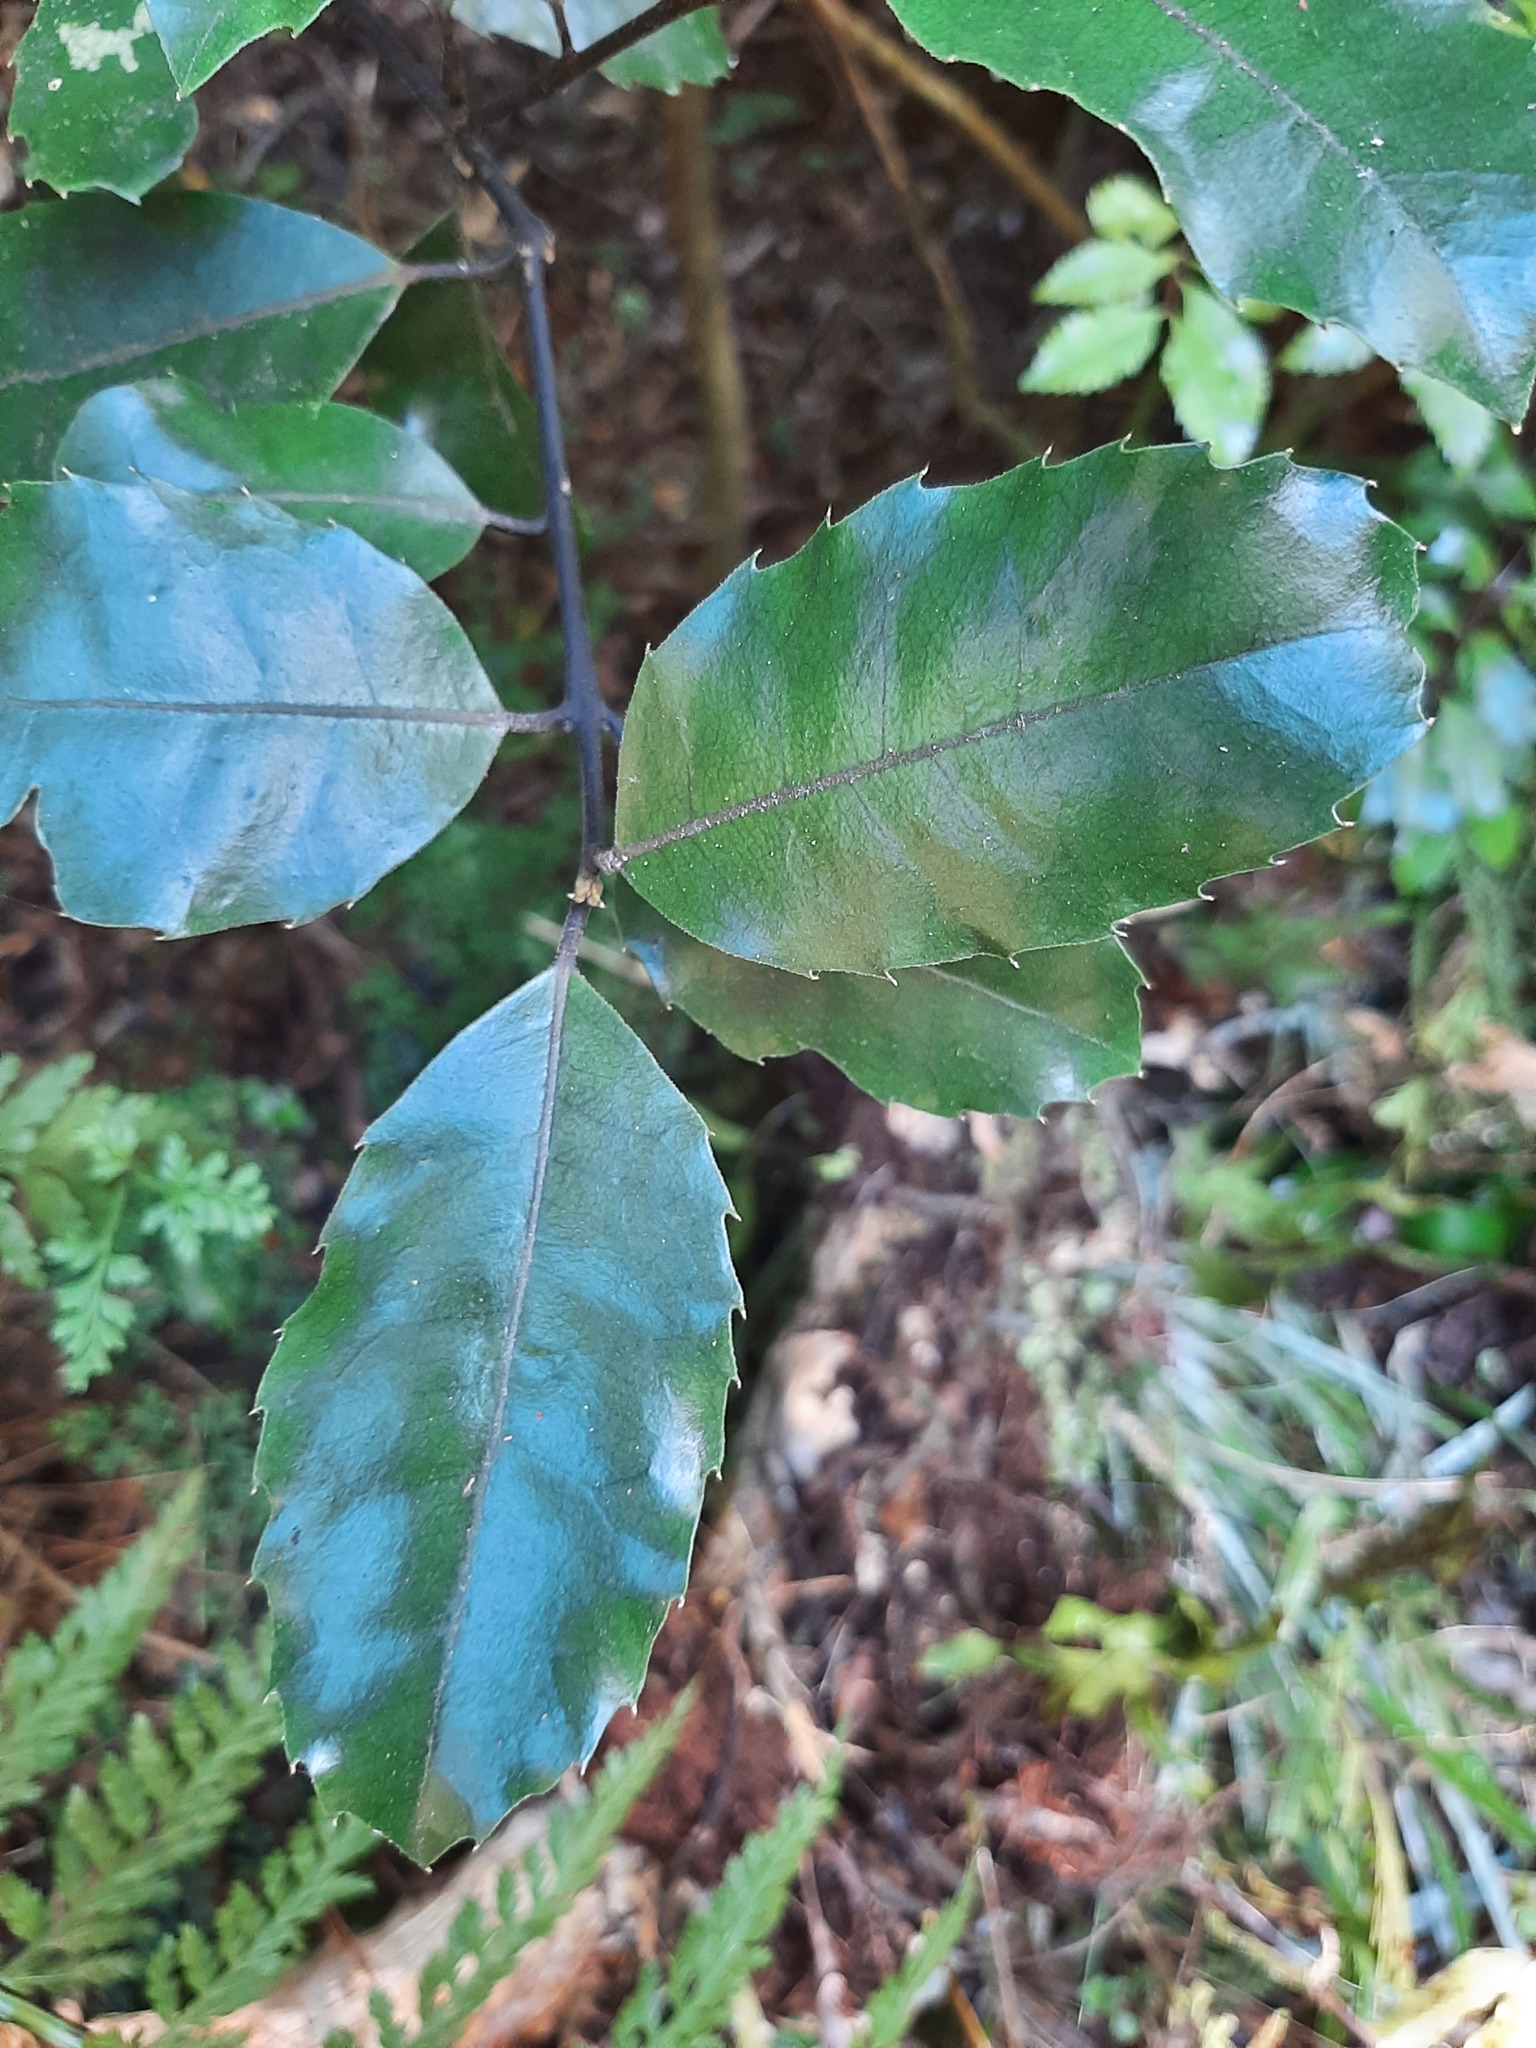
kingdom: Plantae
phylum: Tracheophyta
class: Magnoliopsida
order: Laurales
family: Monimiaceae
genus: Hedycarya
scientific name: Hedycarya arborea
